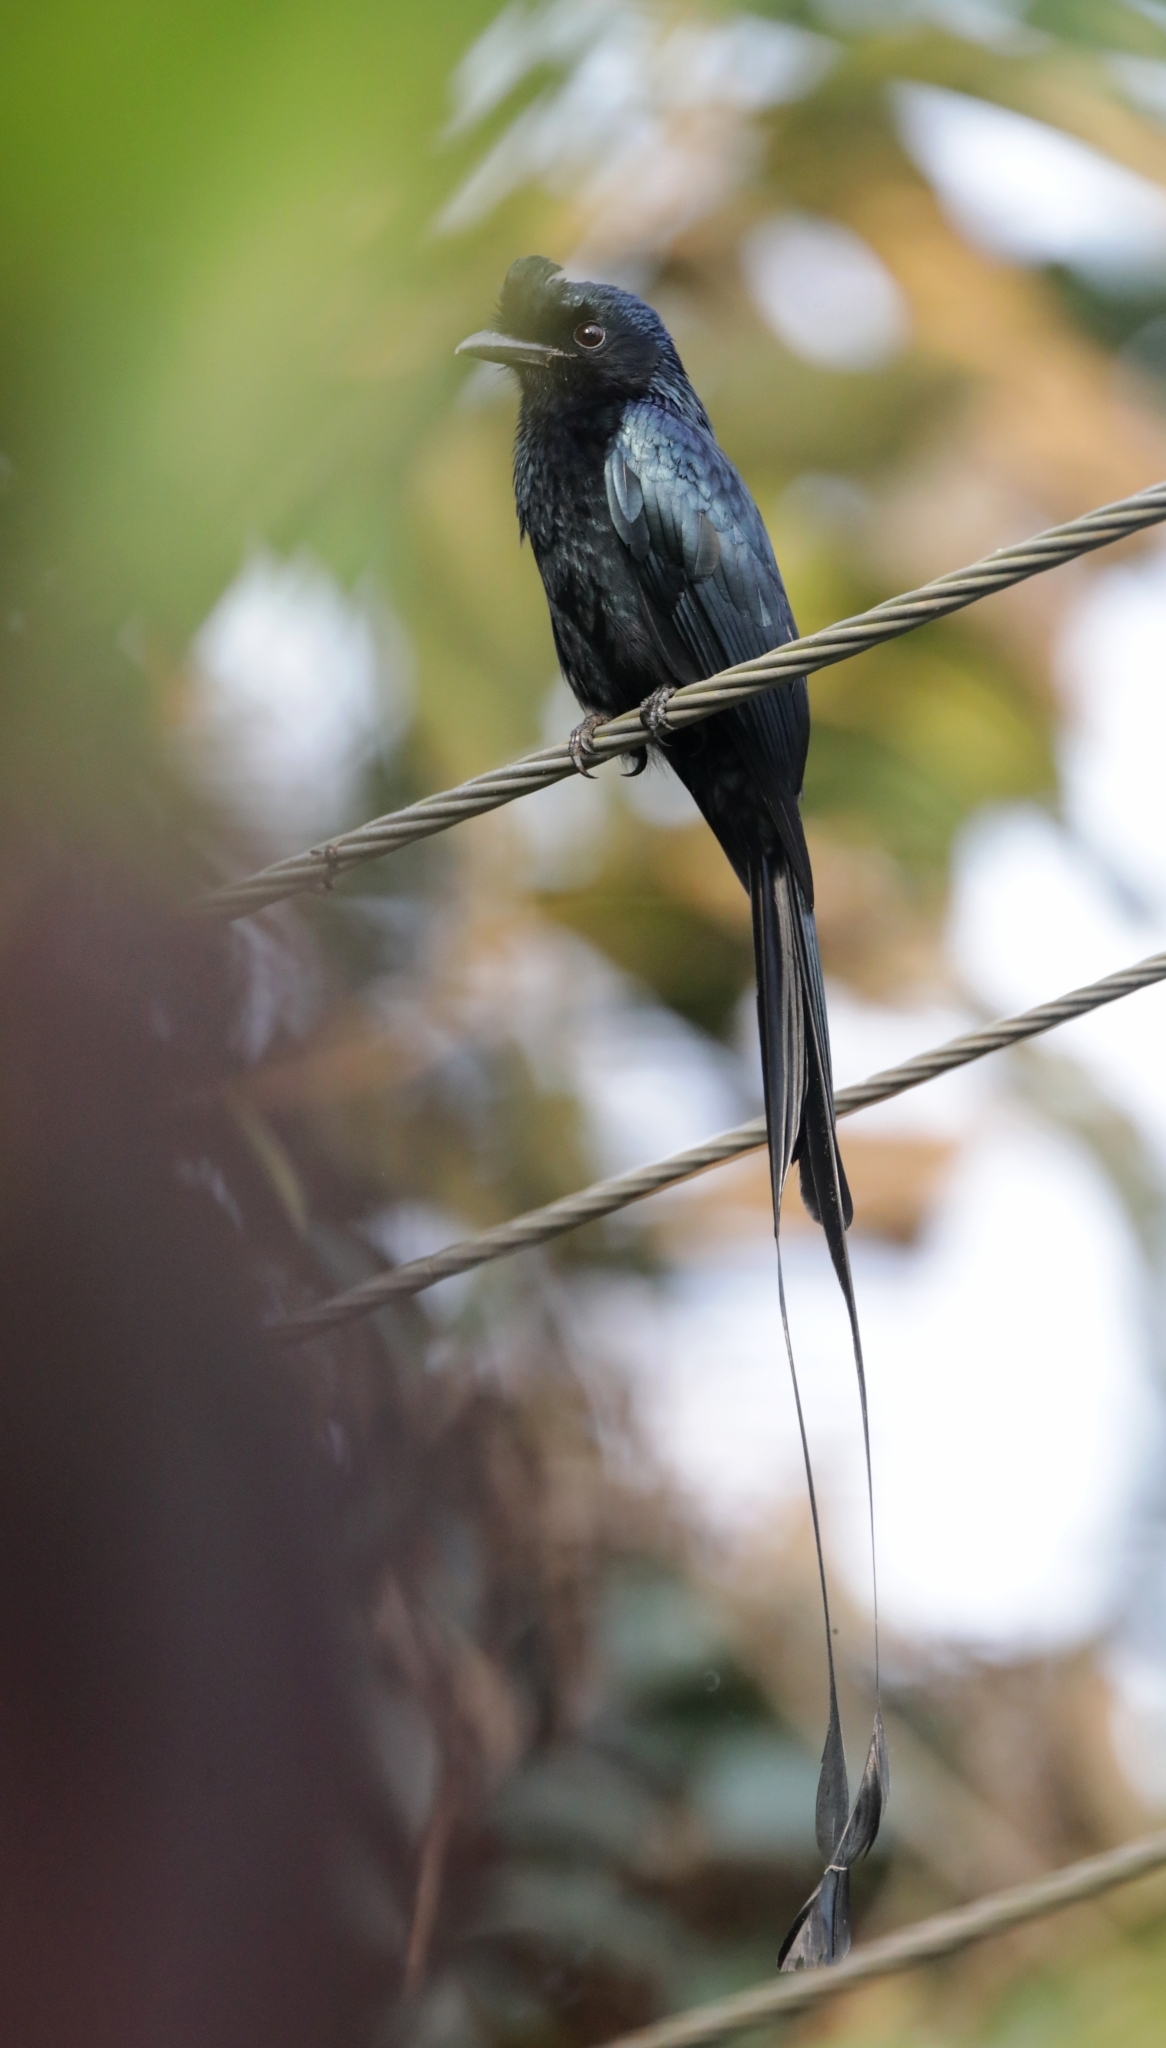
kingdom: Animalia
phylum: Chordata
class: Aves
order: Passeriformes
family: Dicruridae
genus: Dicrurus
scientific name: Dicrurus paradiseus
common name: Greater racket-tailed drongo
